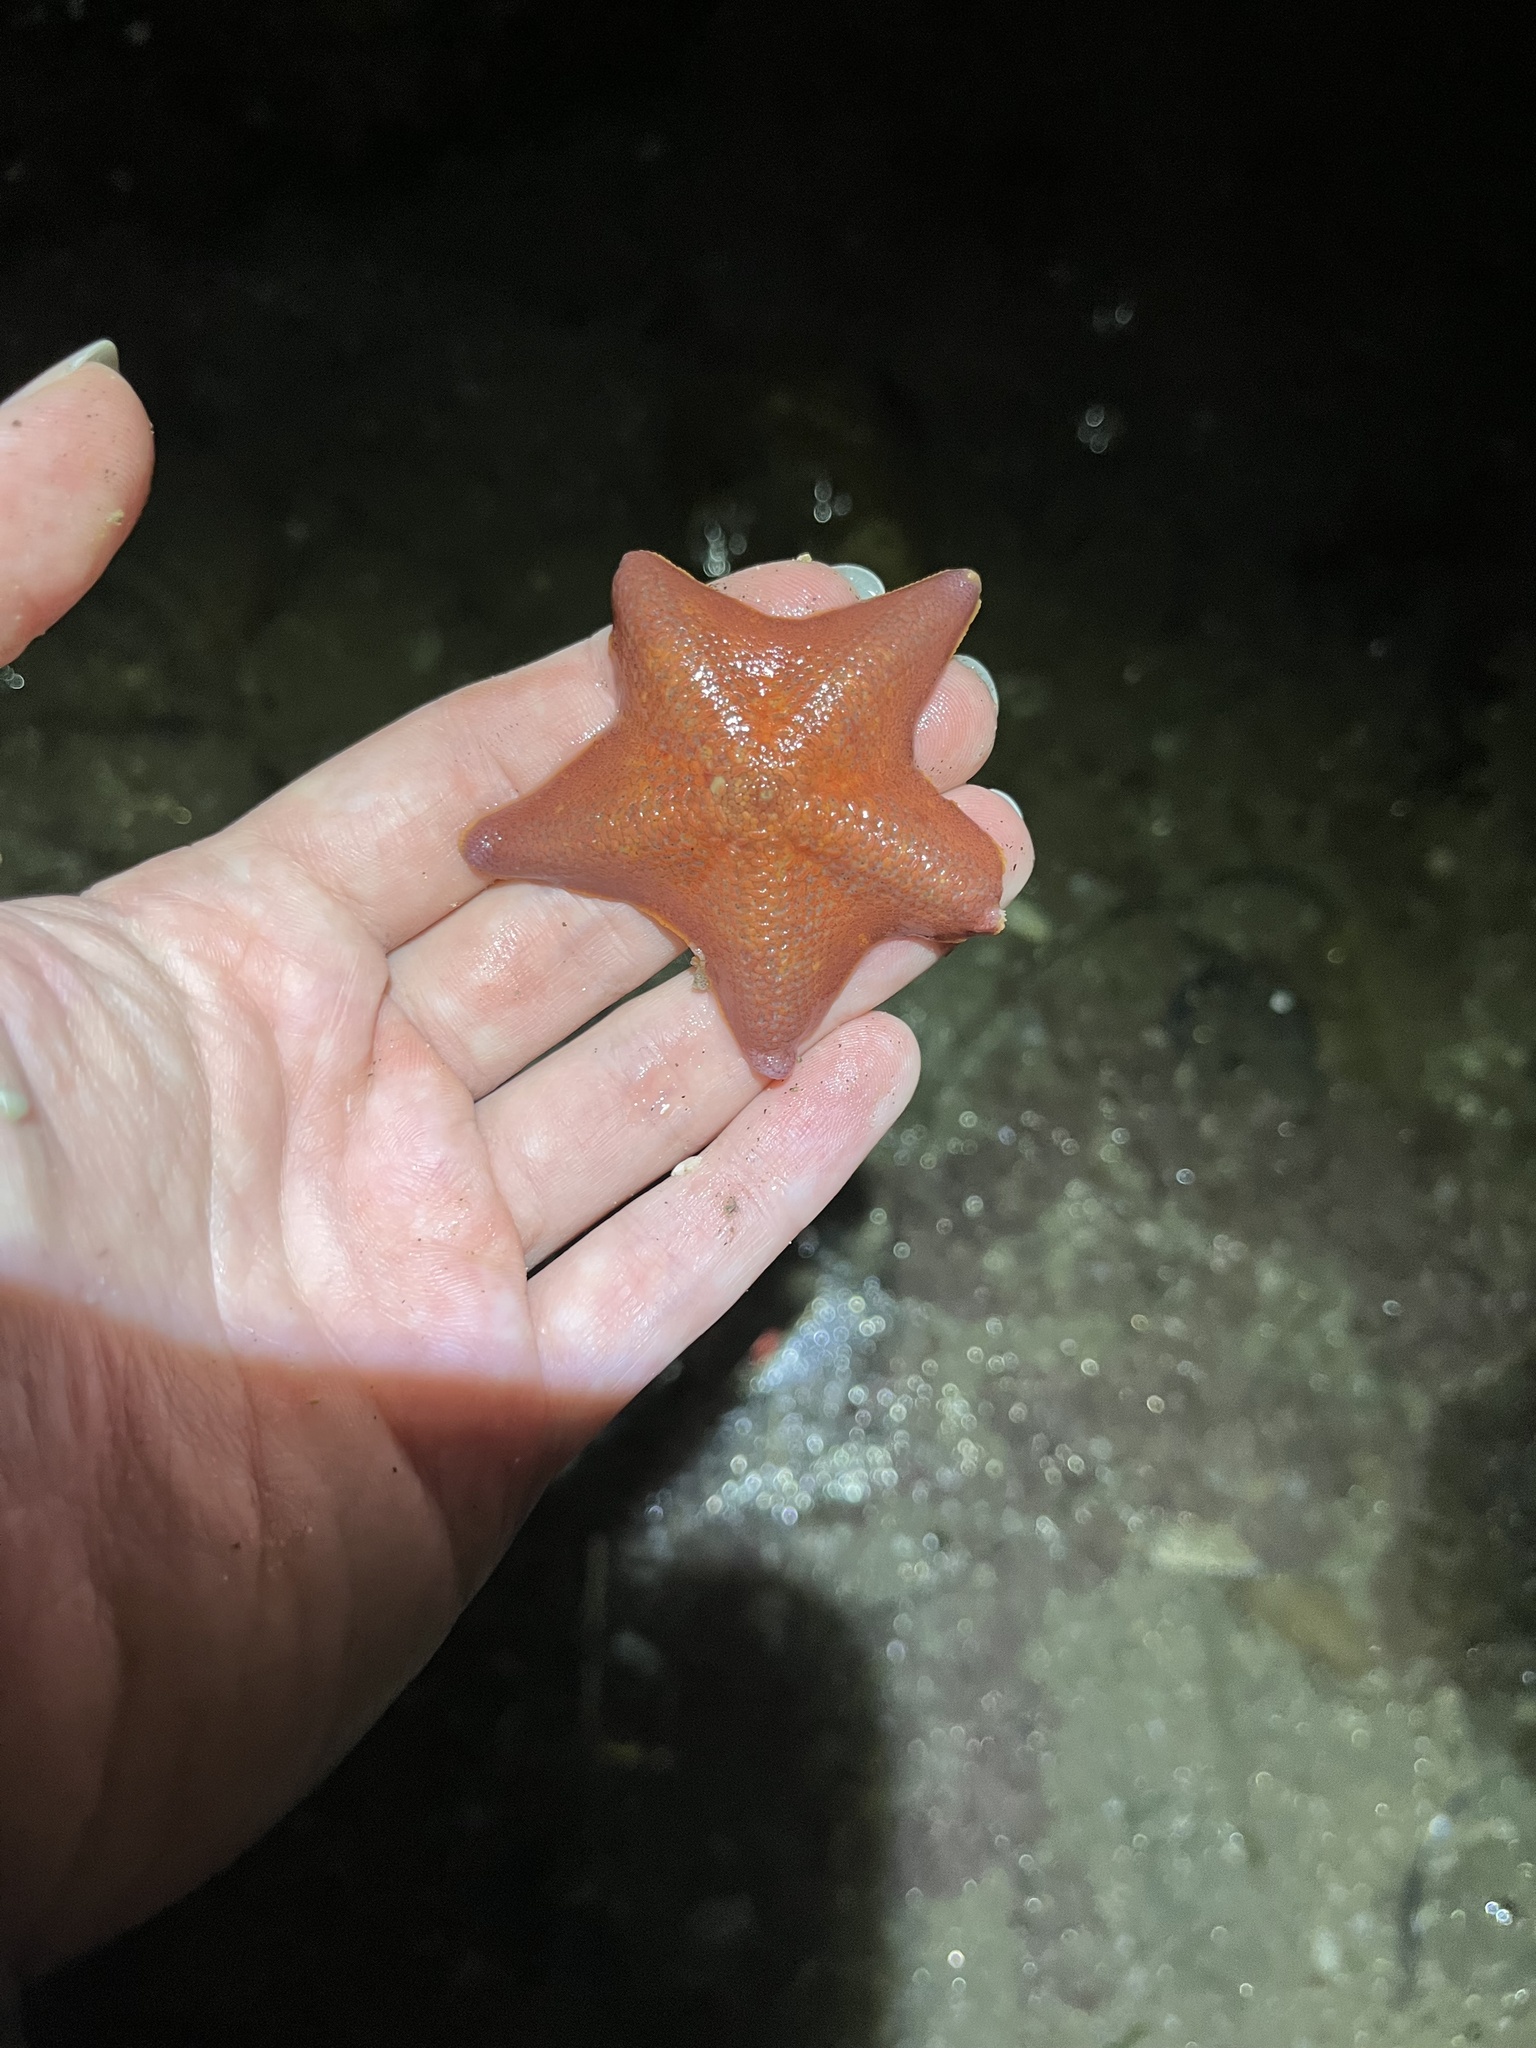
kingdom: Animalia
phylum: Echinodermata
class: Asteroidea
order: Valvatida
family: Asterinidae
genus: Patiria
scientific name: Patiria miniata
